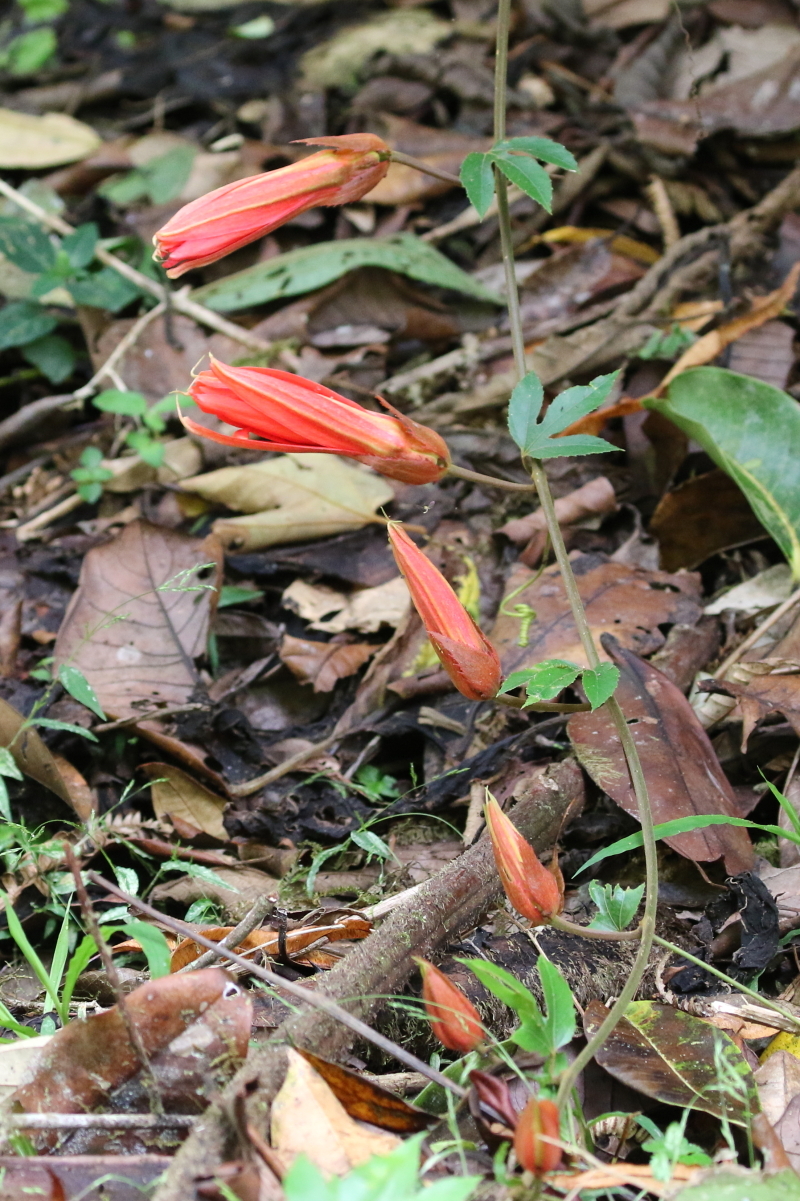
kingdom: Plantae
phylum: Tracheophyta
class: Magnoliopsida
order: Malpighiales
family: Passifloraceae
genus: Passiflora
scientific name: Passiflora vitifolia
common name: Perfumed passionflower
